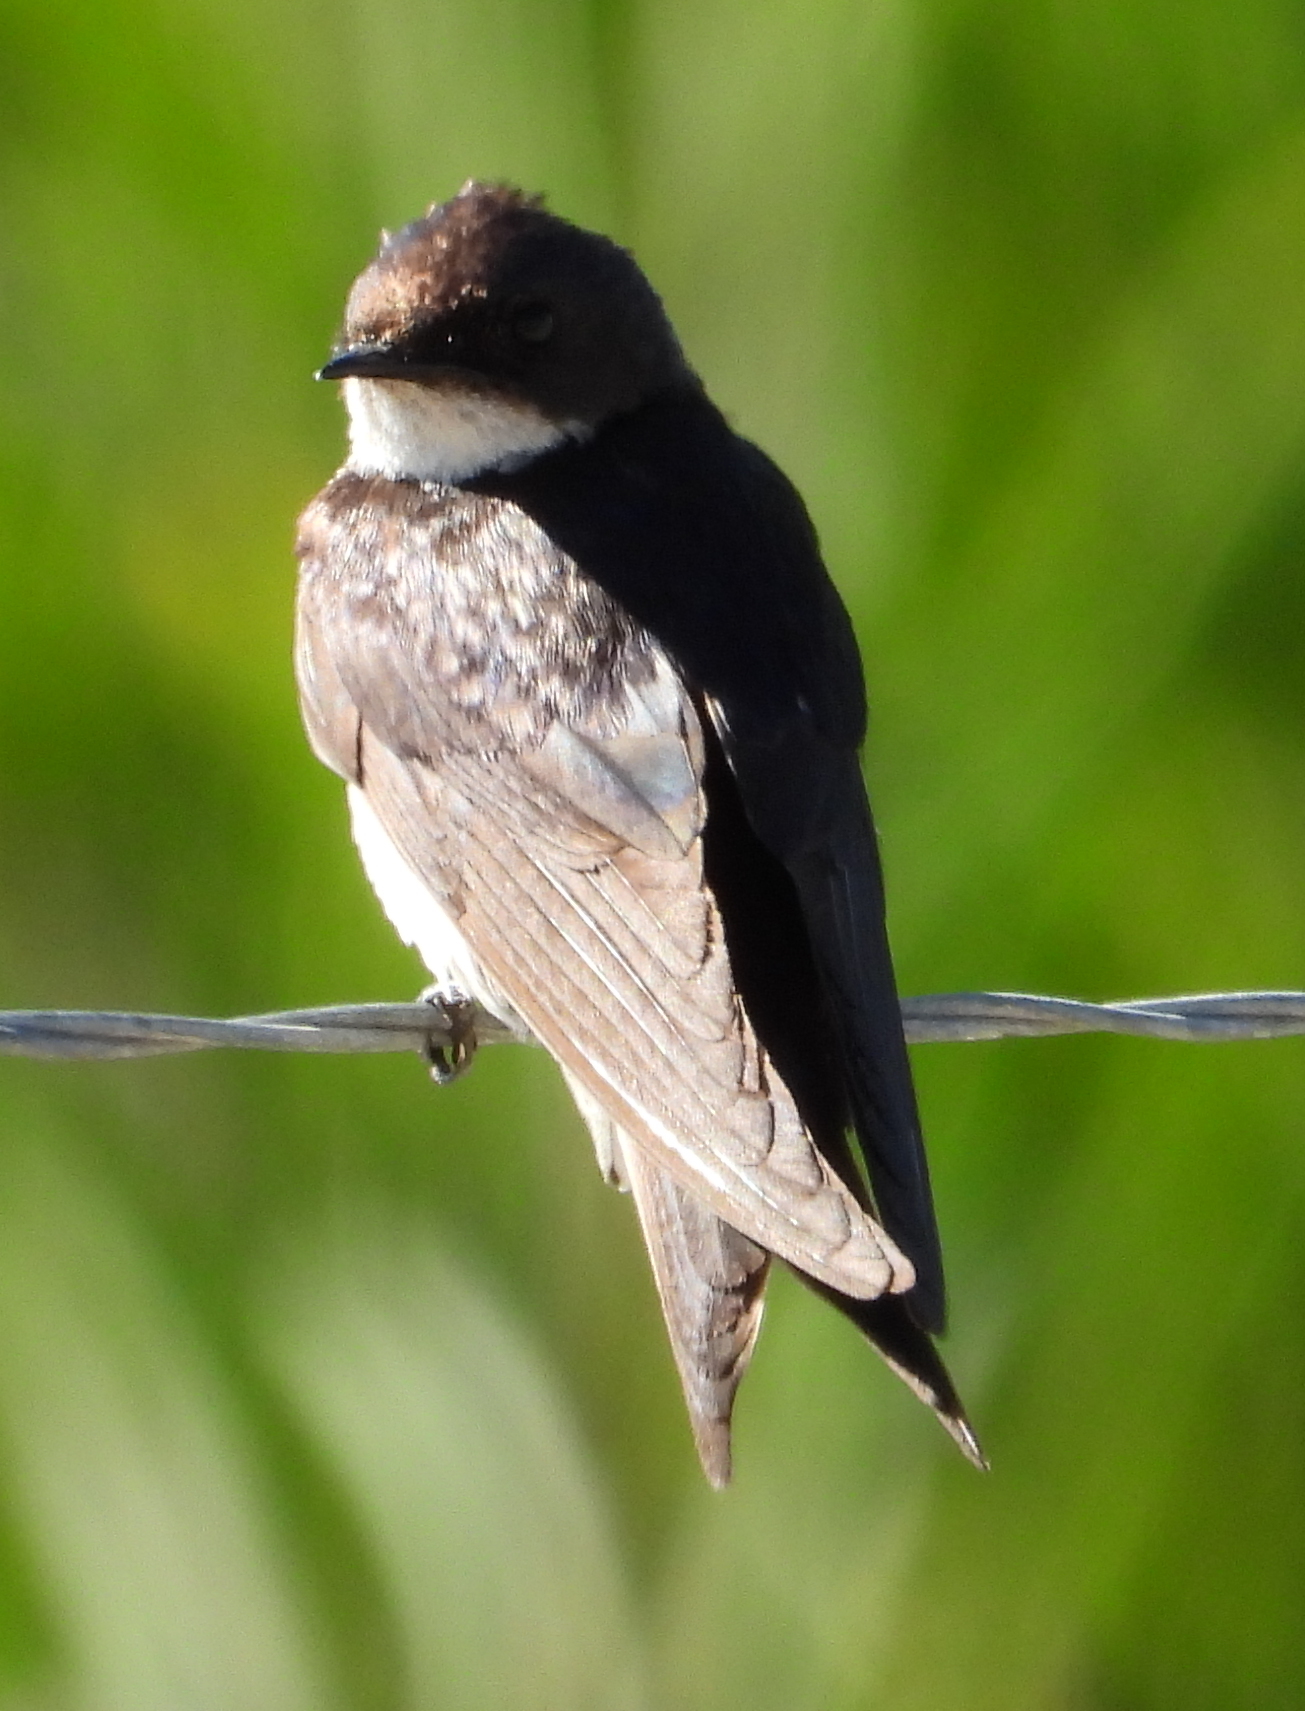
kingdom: Animalia
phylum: Chordata
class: Aves
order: Passeriformes
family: Hirundinidae
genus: Hirundo
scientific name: Hirundo albigularis
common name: White-throated swallow
